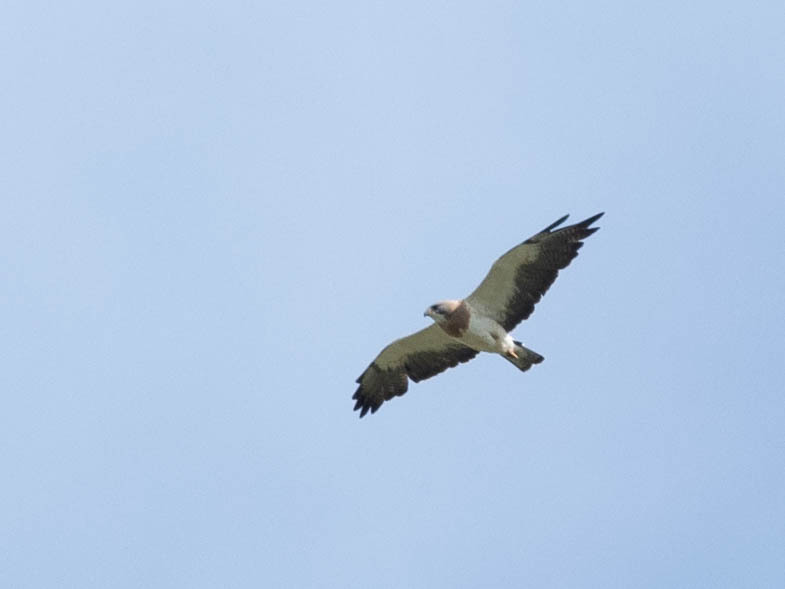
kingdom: Animalia
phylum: Chordata
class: Aves
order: Accipitriformes
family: Accipitridae
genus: Buteo
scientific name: Buteo swainsoni
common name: Swainson's hawk
